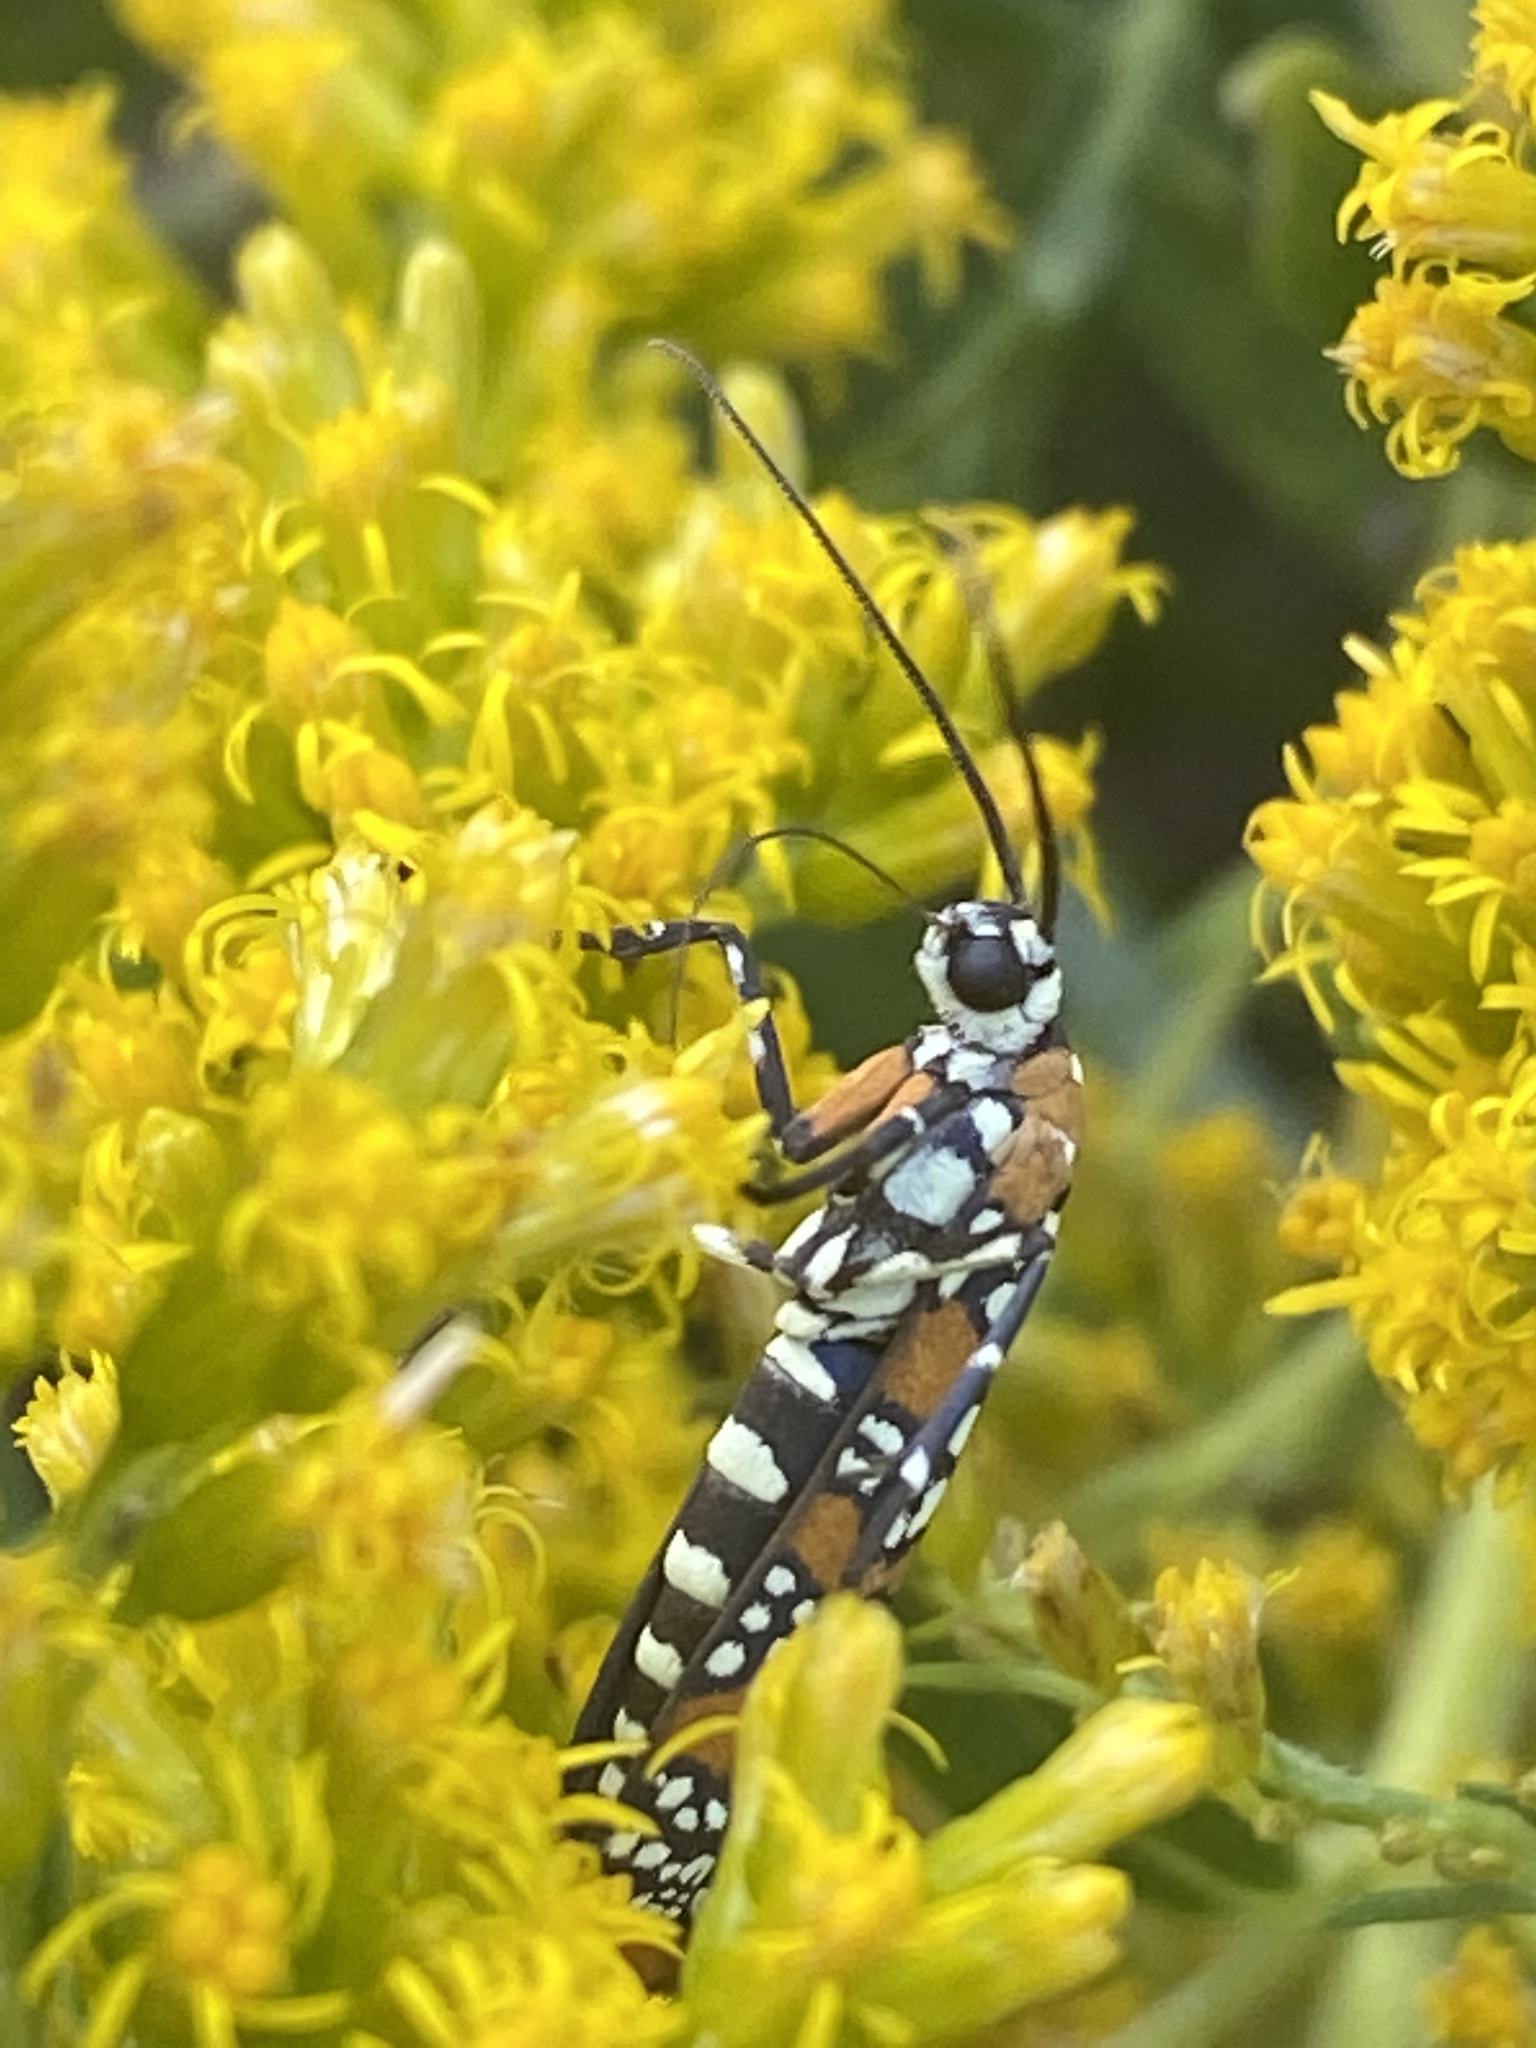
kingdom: Animalia
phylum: Arthropoda
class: Insecta
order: Lepidoptera
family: Attevidae
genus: Atteva
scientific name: Atteva punctella
